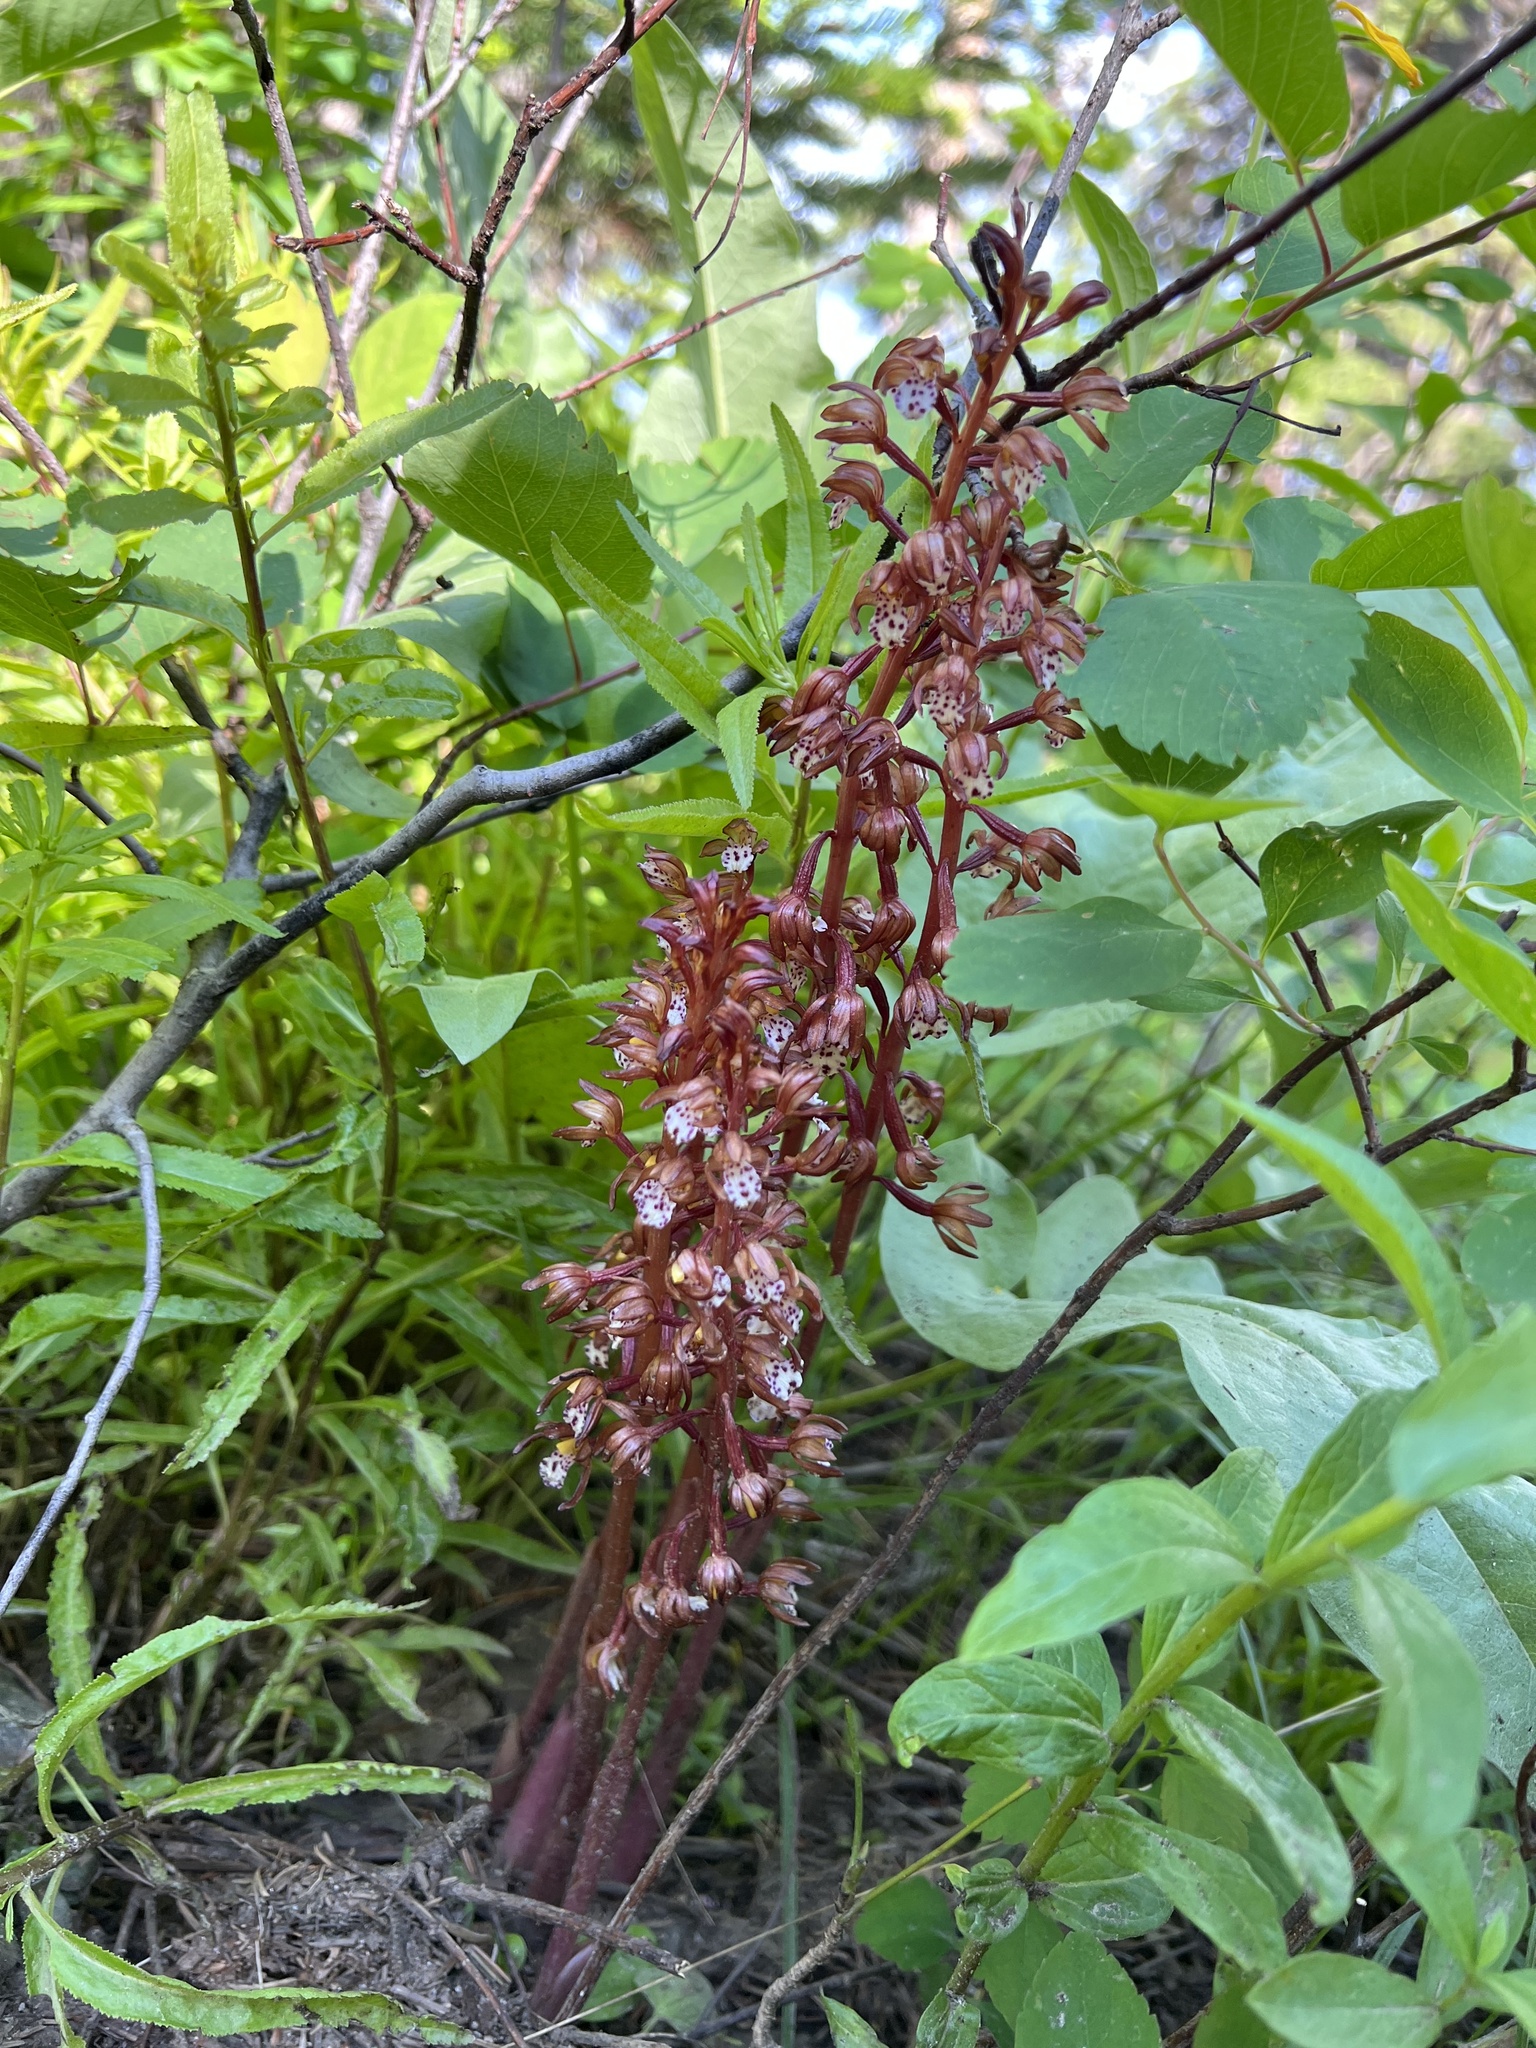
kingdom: Plantae
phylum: Tracheophyta
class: Liliopsida
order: Asparagales
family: Orchidaceae
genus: Corallorhiza
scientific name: Corallorhiza maculata
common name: Spotted coralroot
